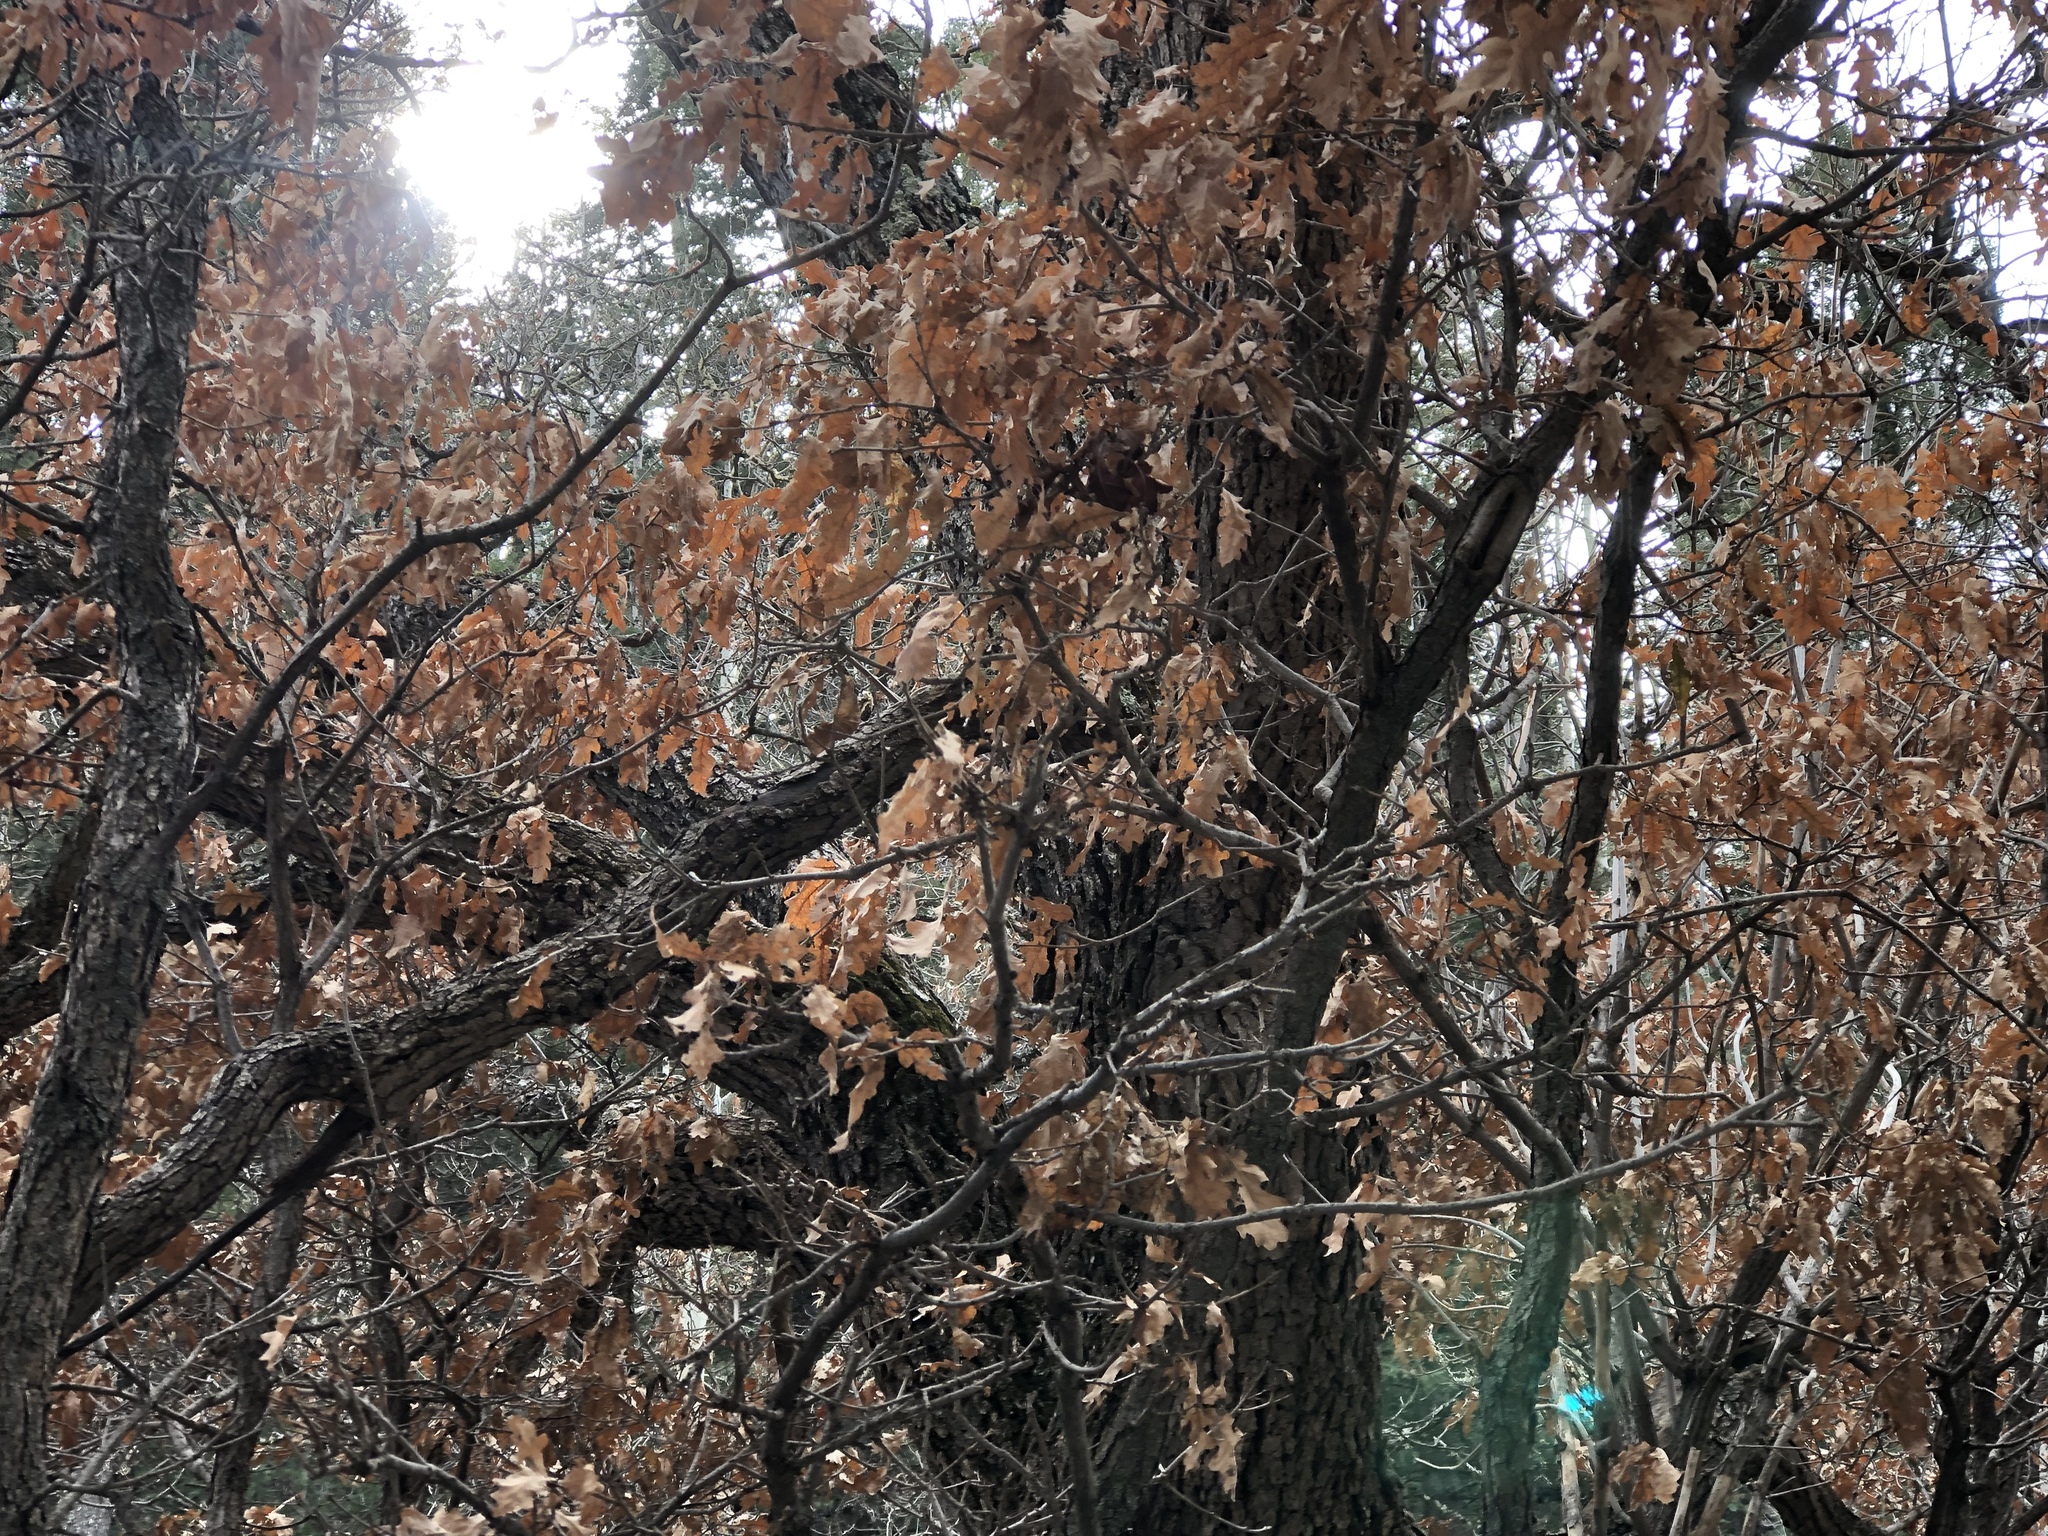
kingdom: Plantae
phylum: Tracheophyta
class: Magnoliopsida
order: Fagales
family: Fagaceae
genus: Quercus
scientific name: Quercus gambelii
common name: Gambel oak
